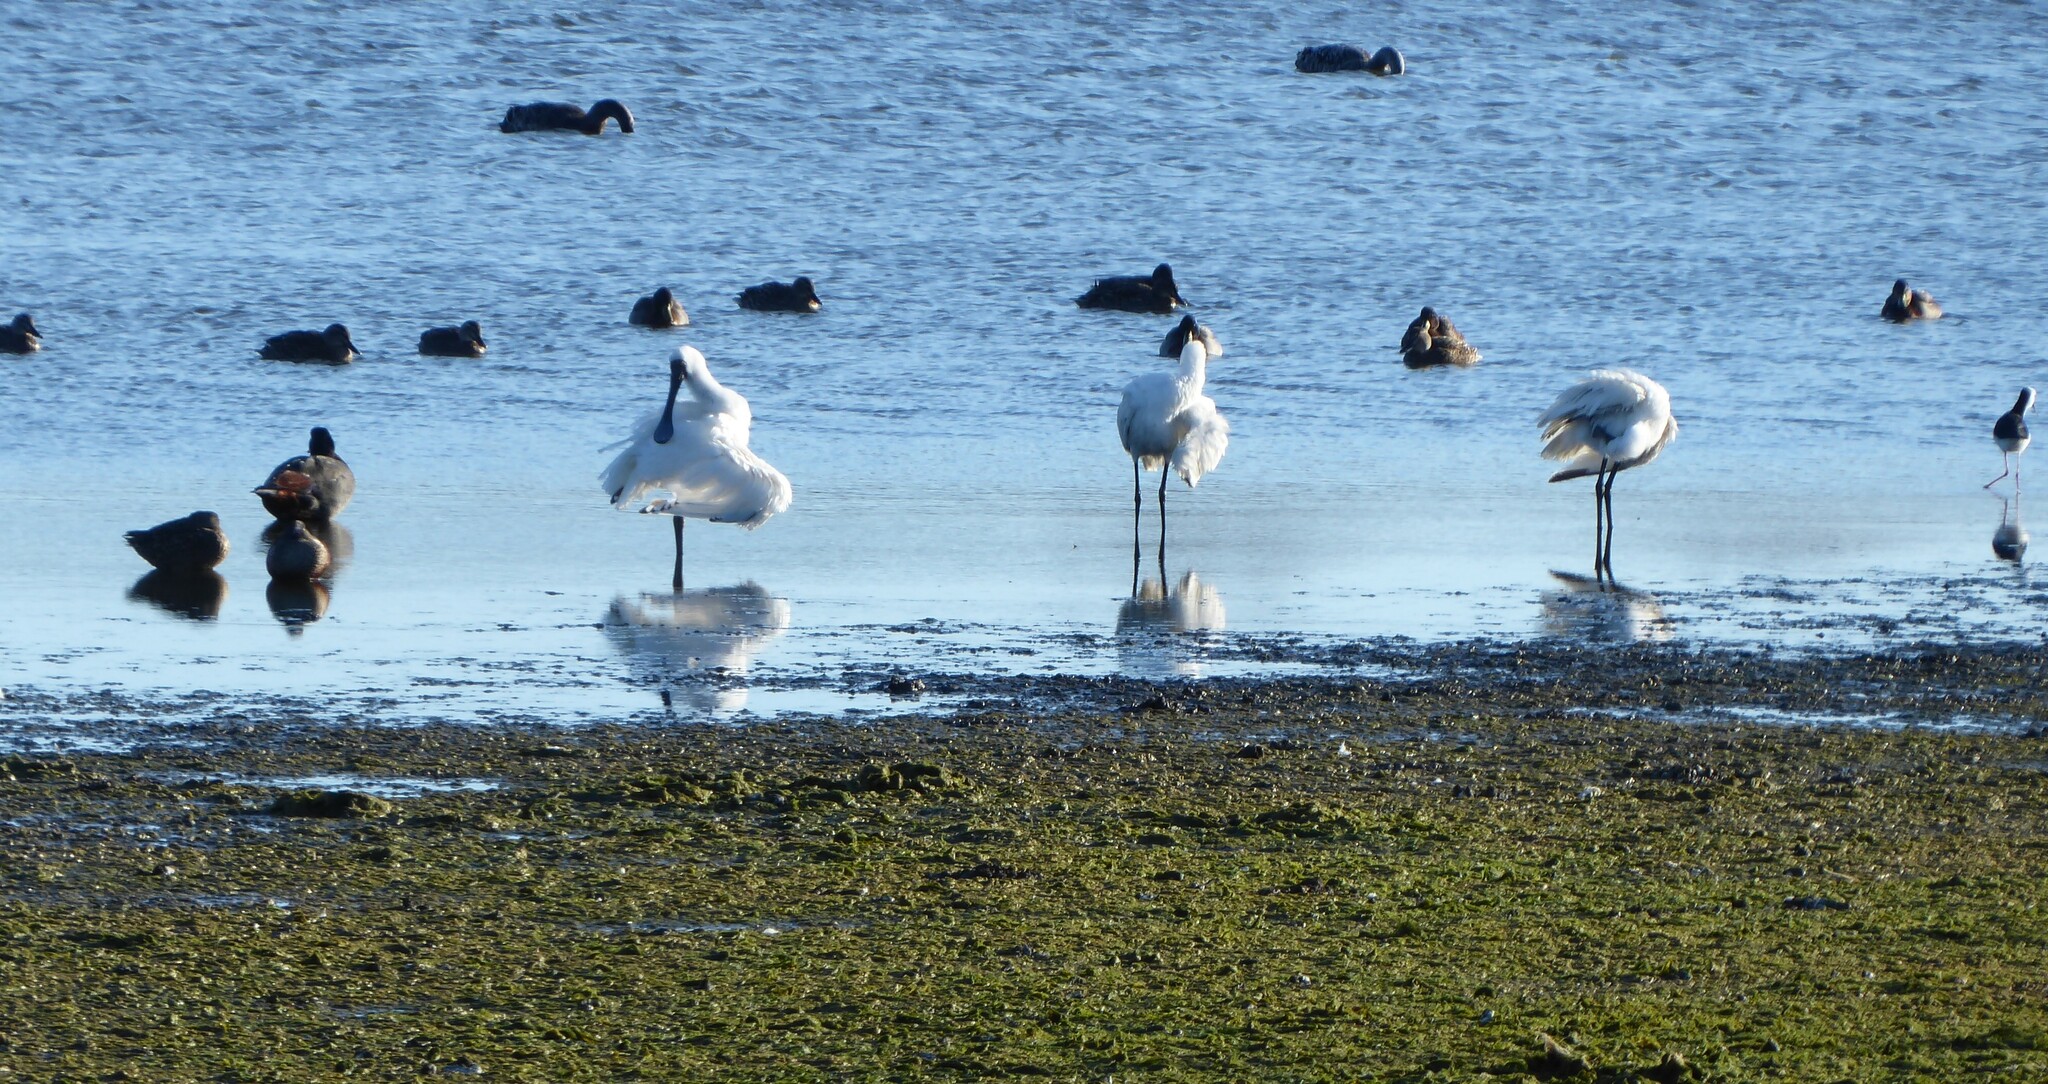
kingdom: Animalia
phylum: Chordata
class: Aves
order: Pelecaniformes
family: Threskiornithidae
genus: Platalea
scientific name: Platalea regia
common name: Royal spoonbill
